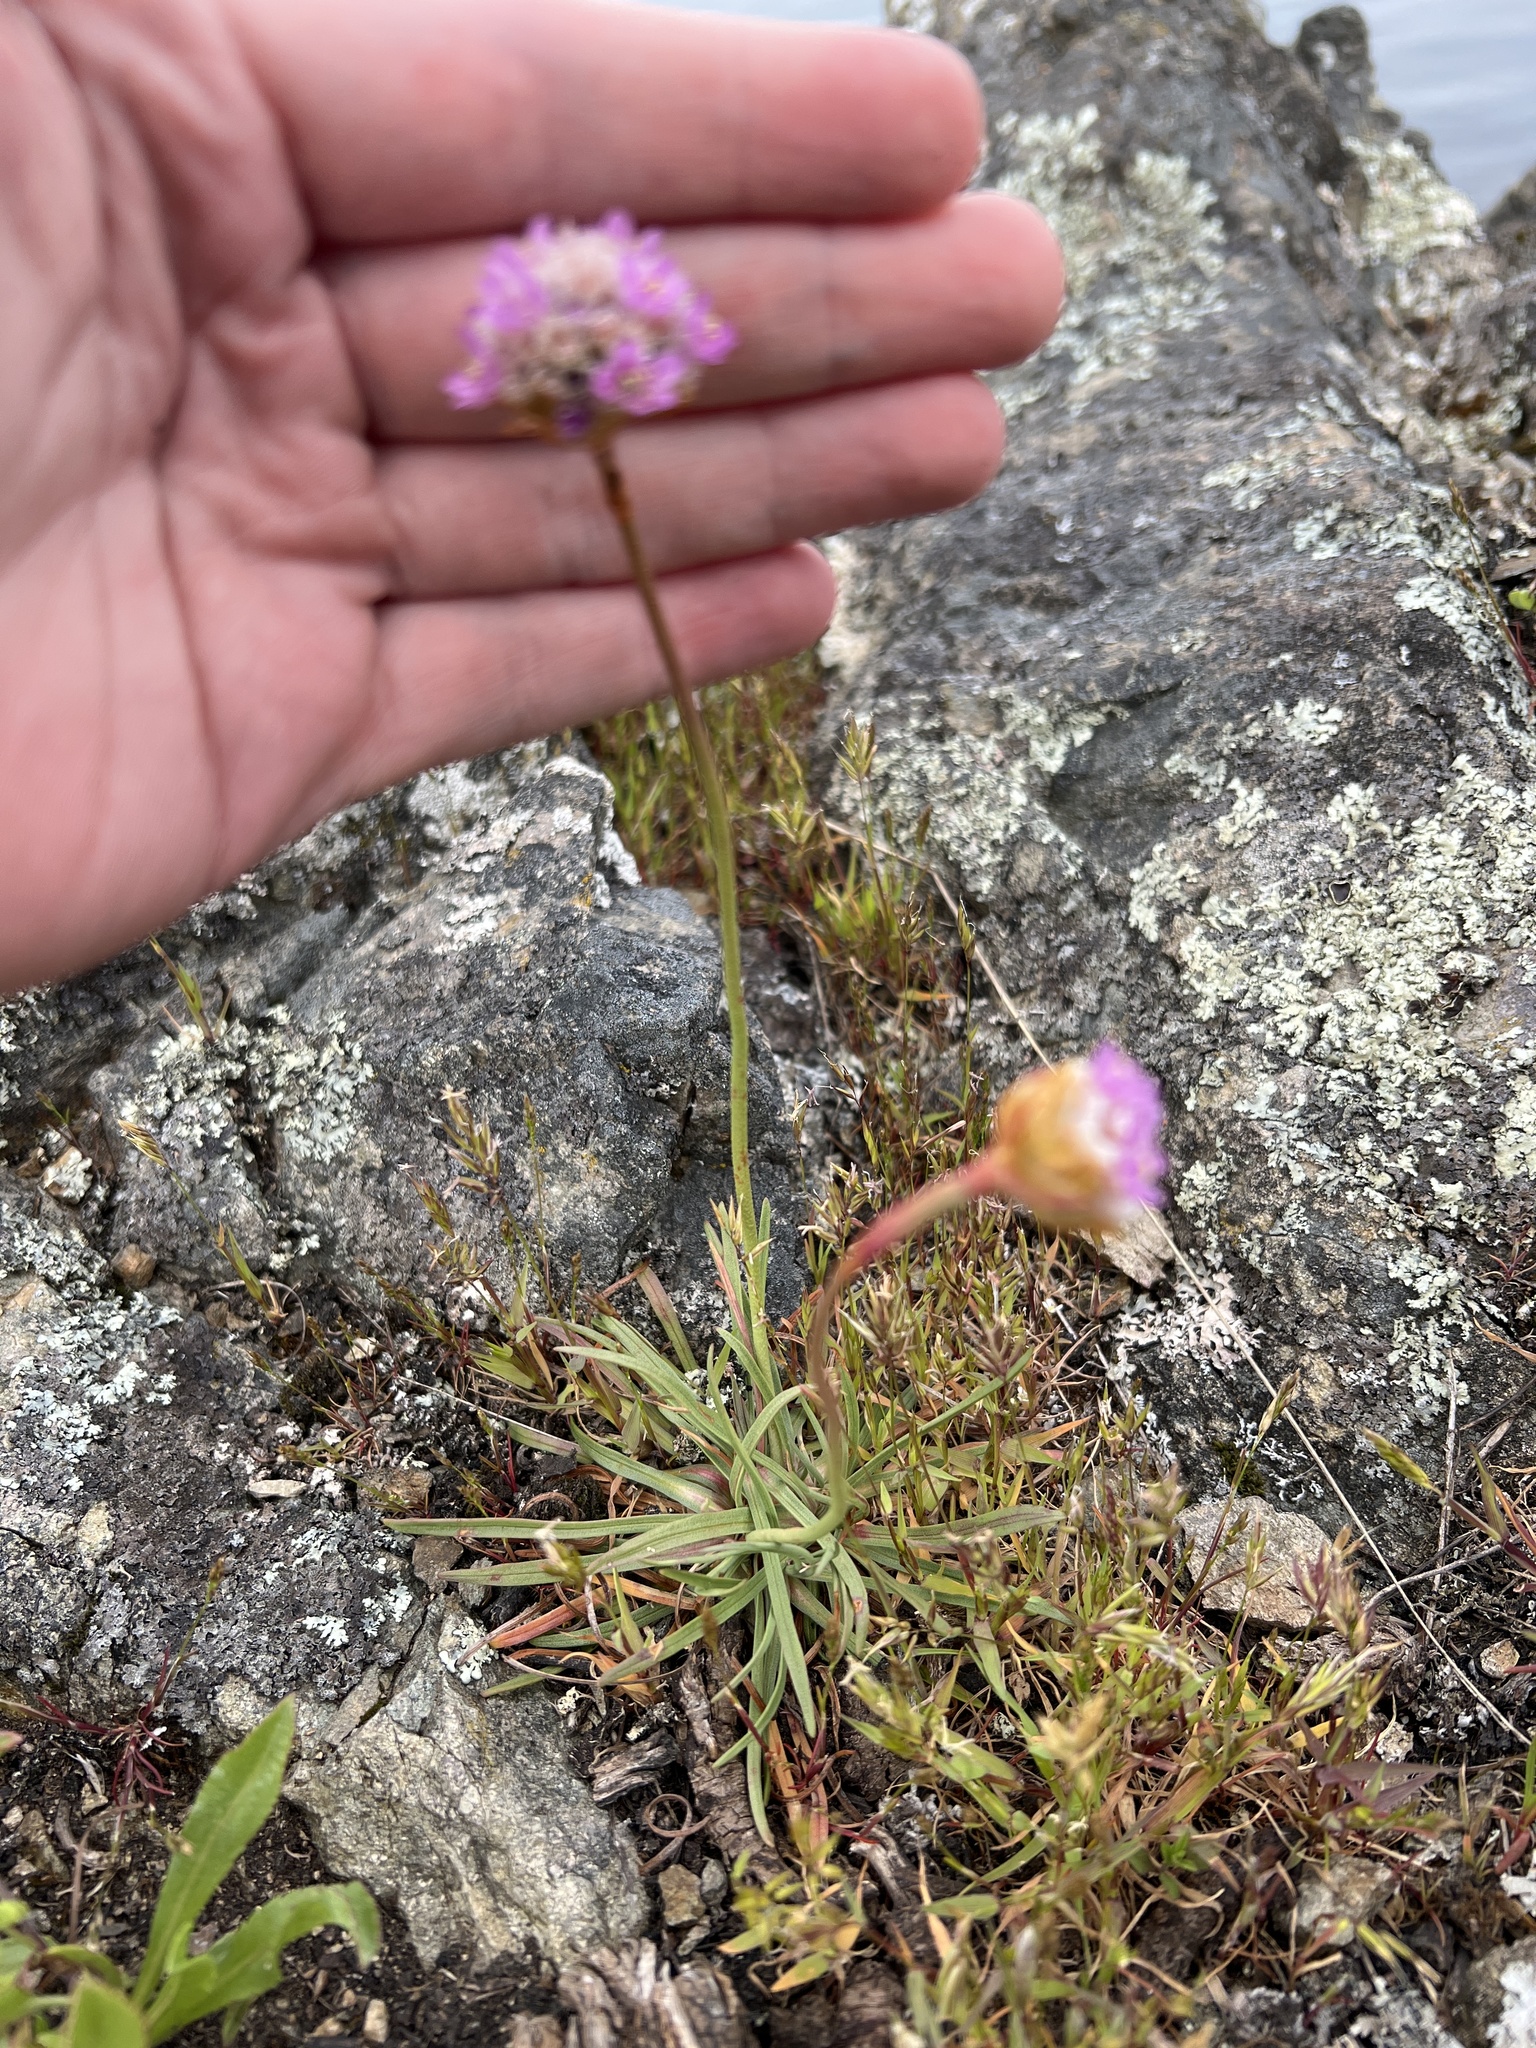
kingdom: Plantae
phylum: Tracheophyta
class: Magnoliopsida
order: Caryophyllales
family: Plumbaginaceae
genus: Armeria
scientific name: Armeria maritima
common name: Thrift
